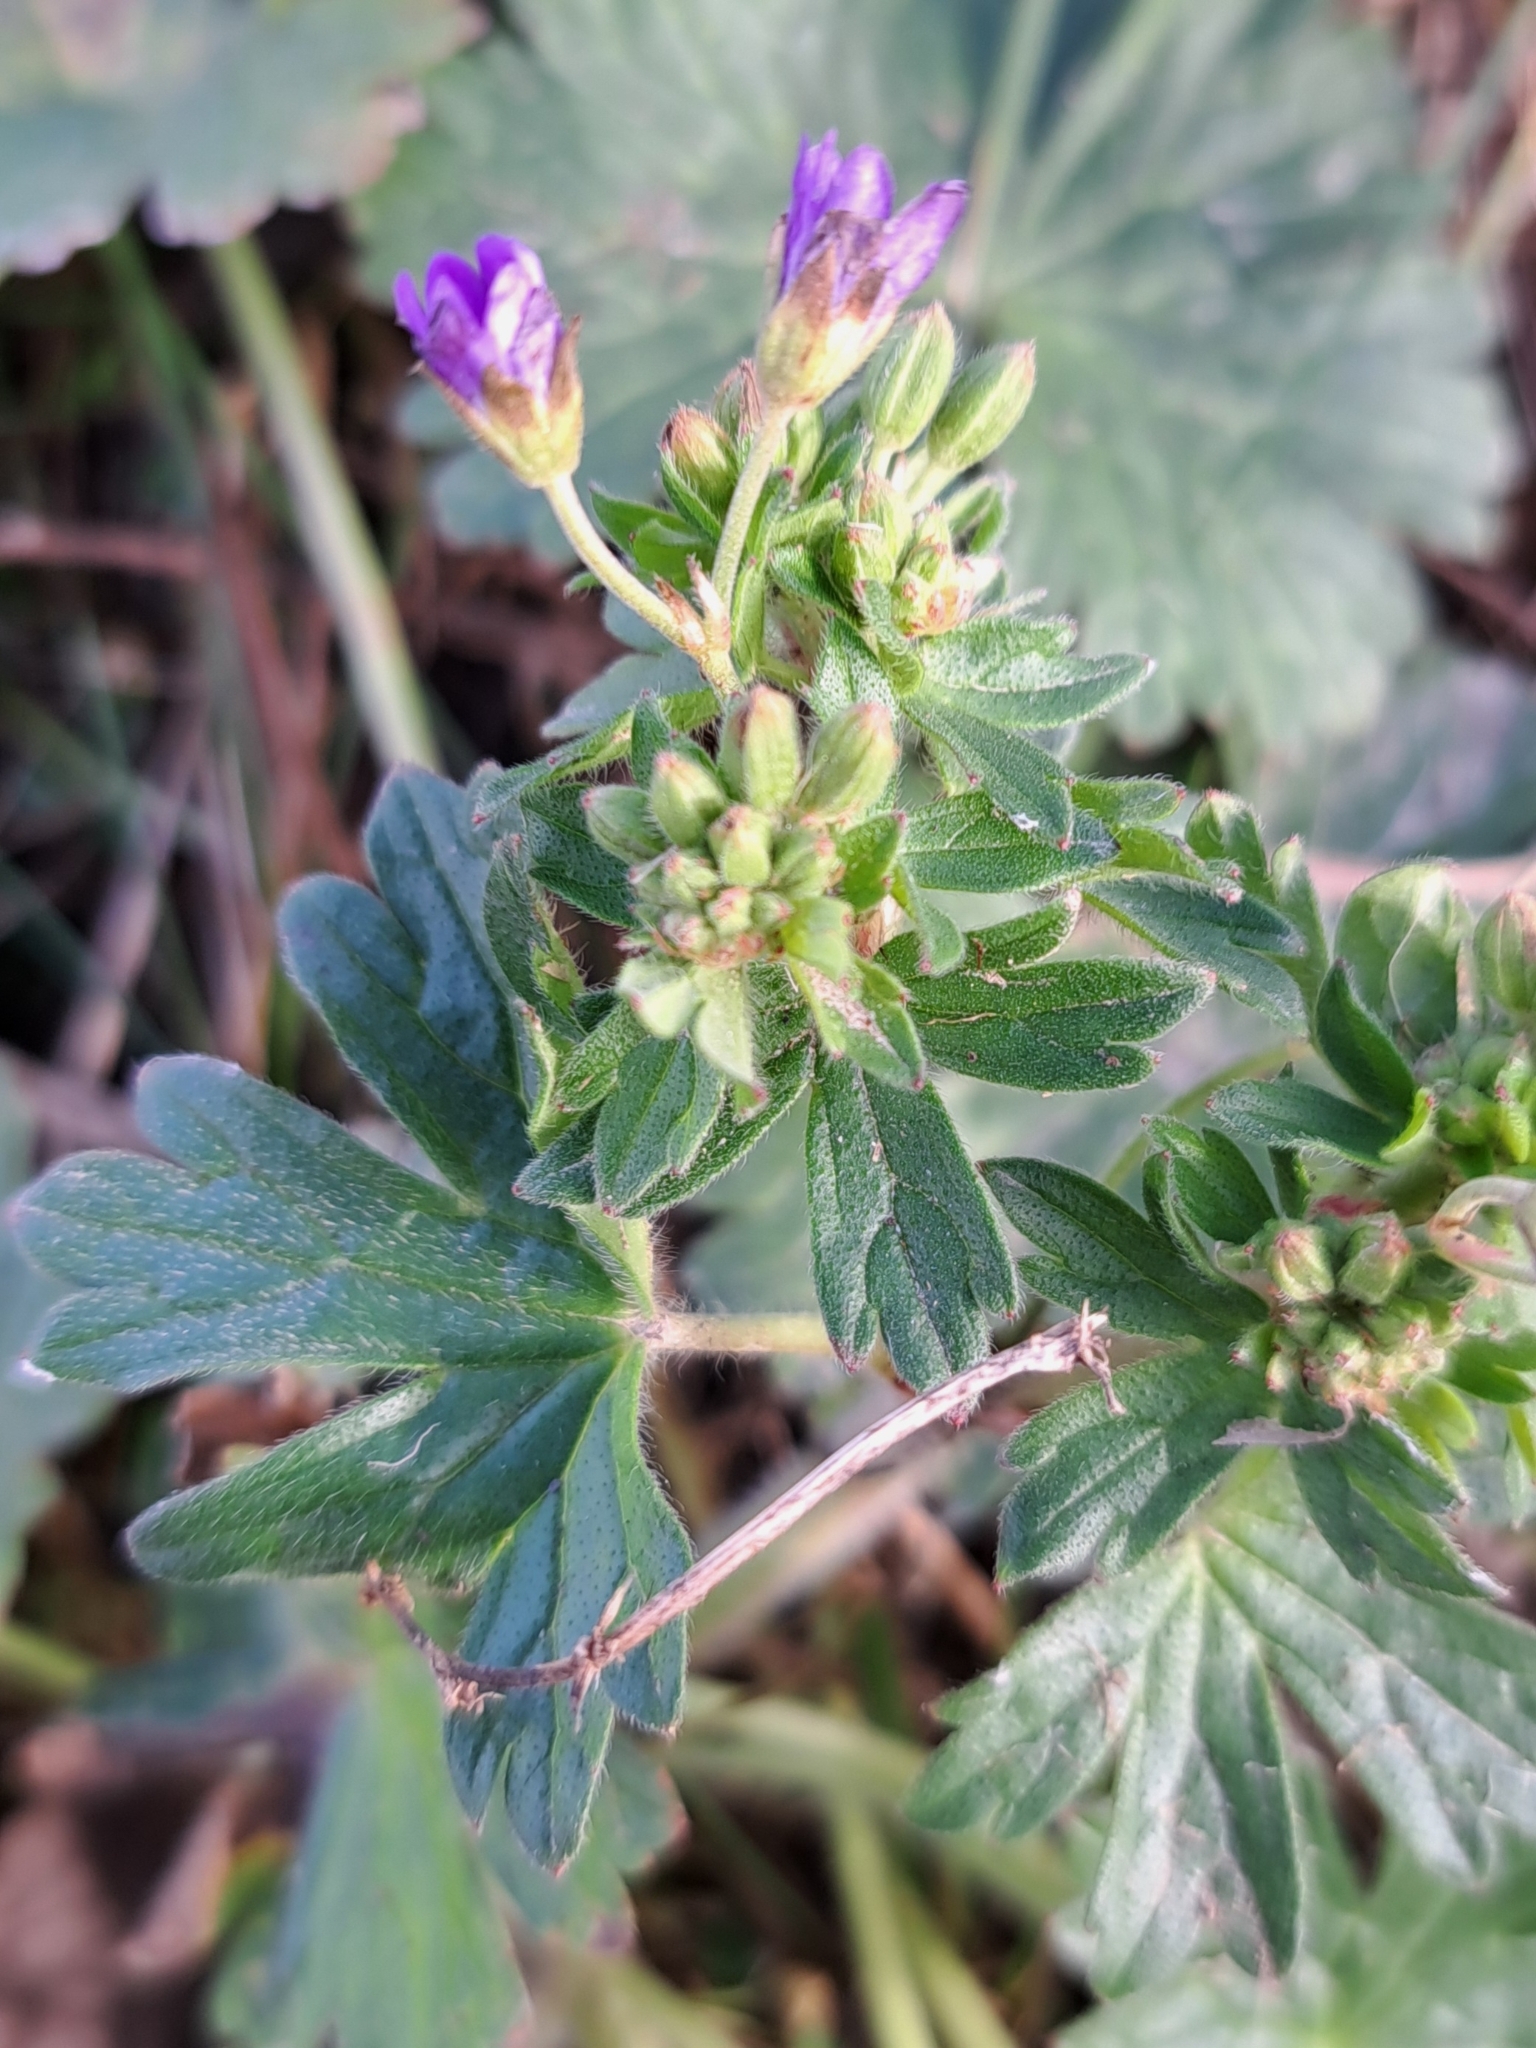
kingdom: Plantae
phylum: Tracheophyta
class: Magnoliopsida
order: Geraniales
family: Geraniaceae
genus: Geranium
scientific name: Geranium pyrenaicum
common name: Hedgerow crane's-bill
